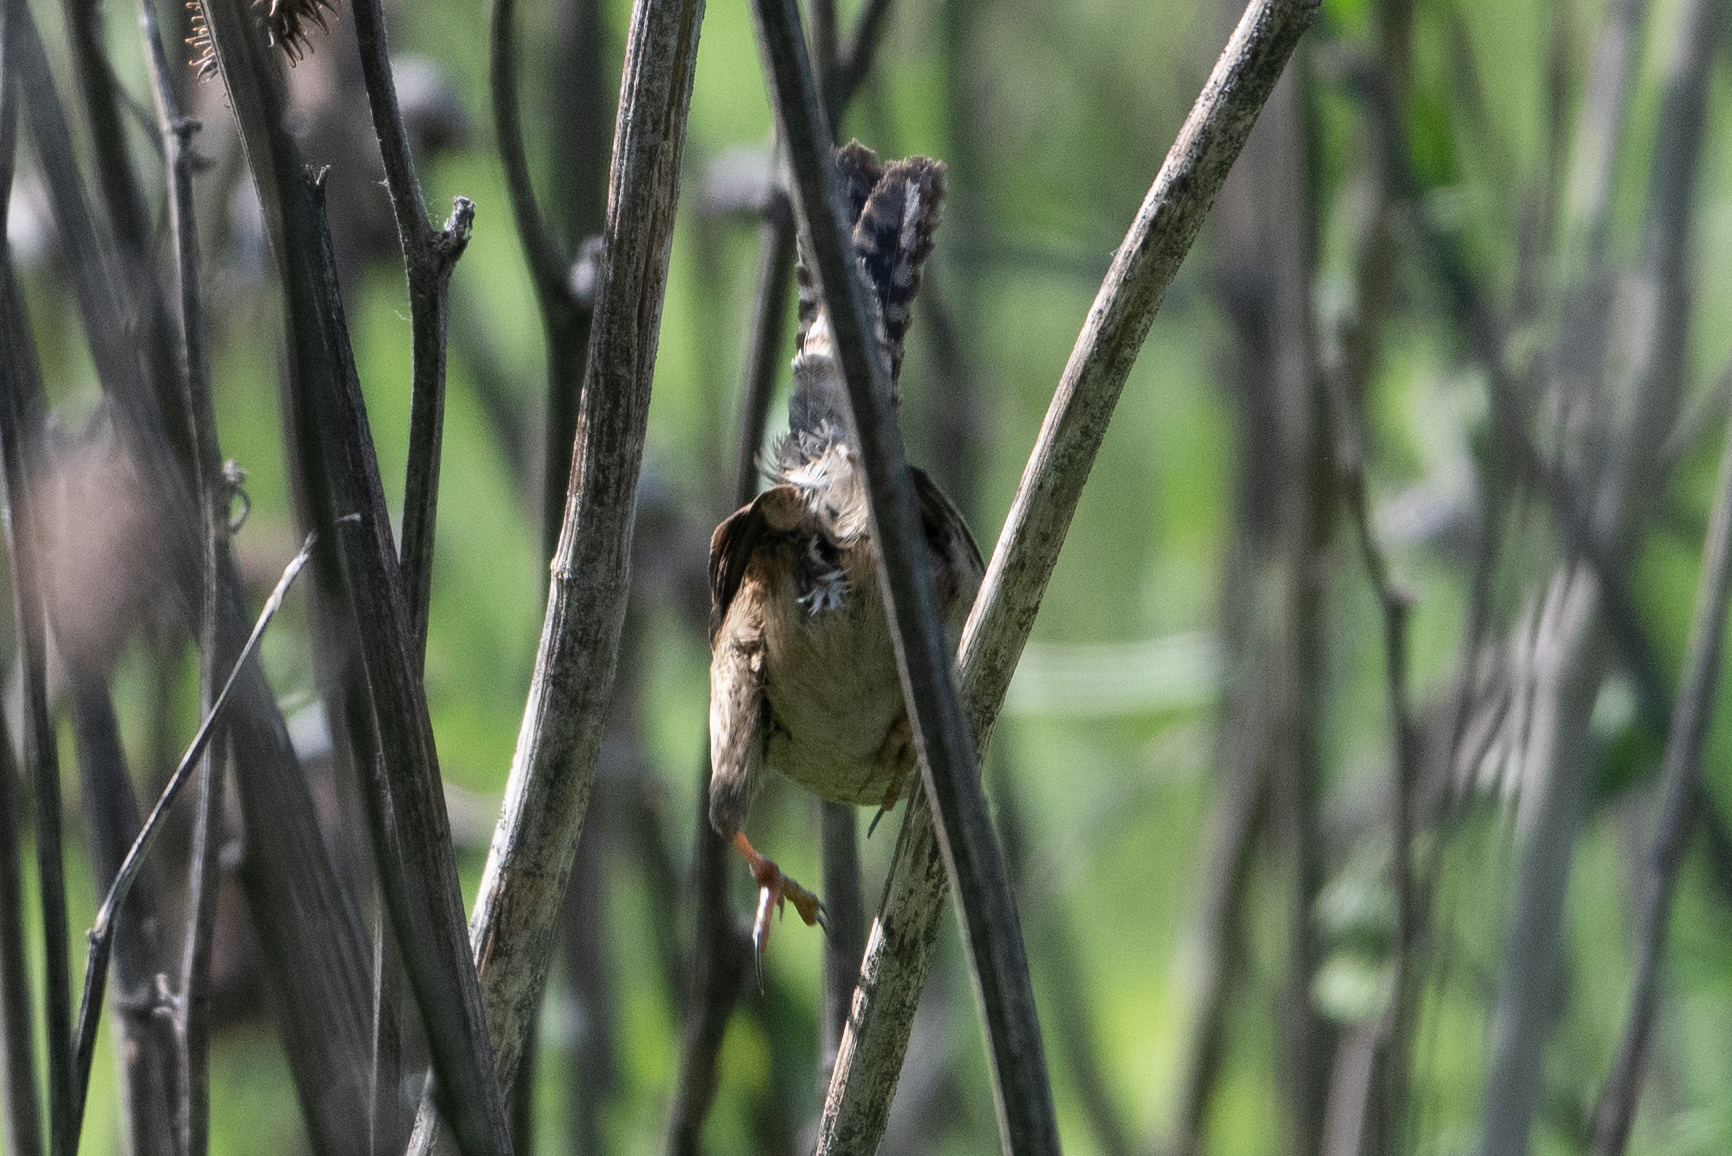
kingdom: Animalia
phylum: Chordata
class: Aves
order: Passeriformes
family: Troglodytidae
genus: Cistothorus
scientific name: Cistothorus palustris
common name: Marsh wren
